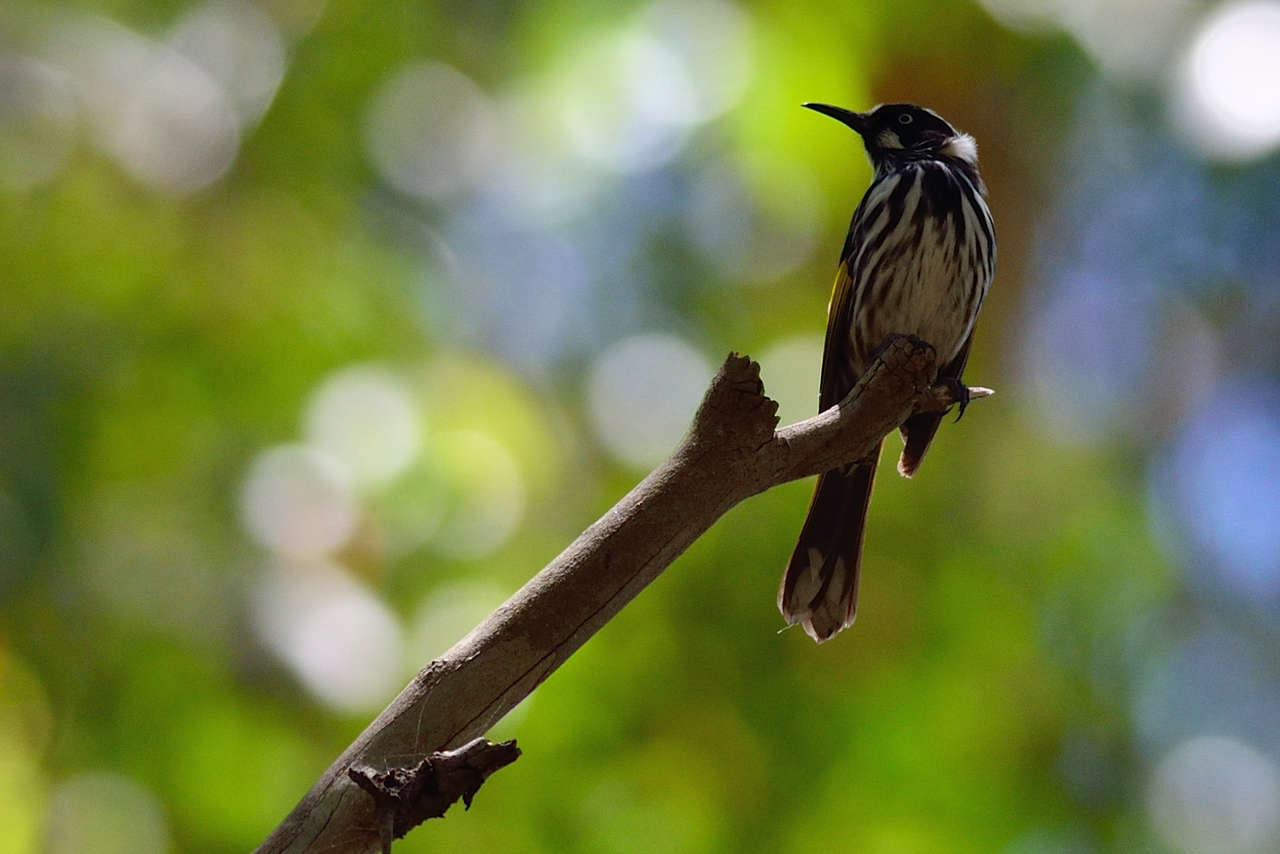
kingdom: Animalia
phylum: Chordata
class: Aves
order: Passeriformes
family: Meliphagidae
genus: Phylidonyris
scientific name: Phylidonyris novaehollandiae
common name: New holland honeyeater
